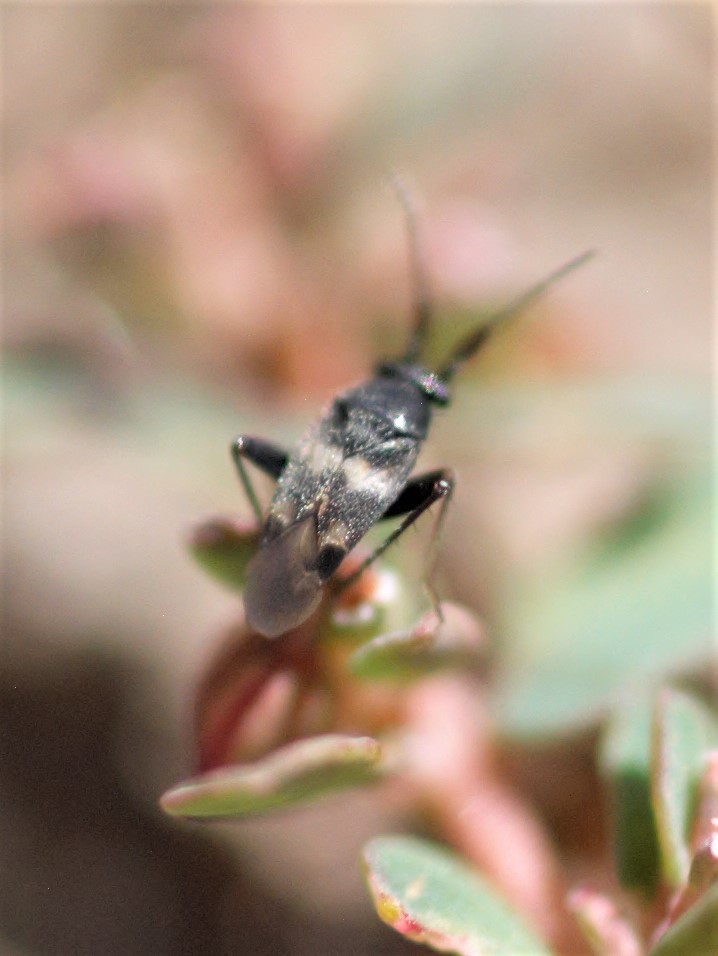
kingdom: Animalia
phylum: Arthropoda
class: Insecta
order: Hemiptera
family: Miridae
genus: Spanagonicus
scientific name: Spanagonicus albofasciatus
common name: Whitemarked fleahopper
